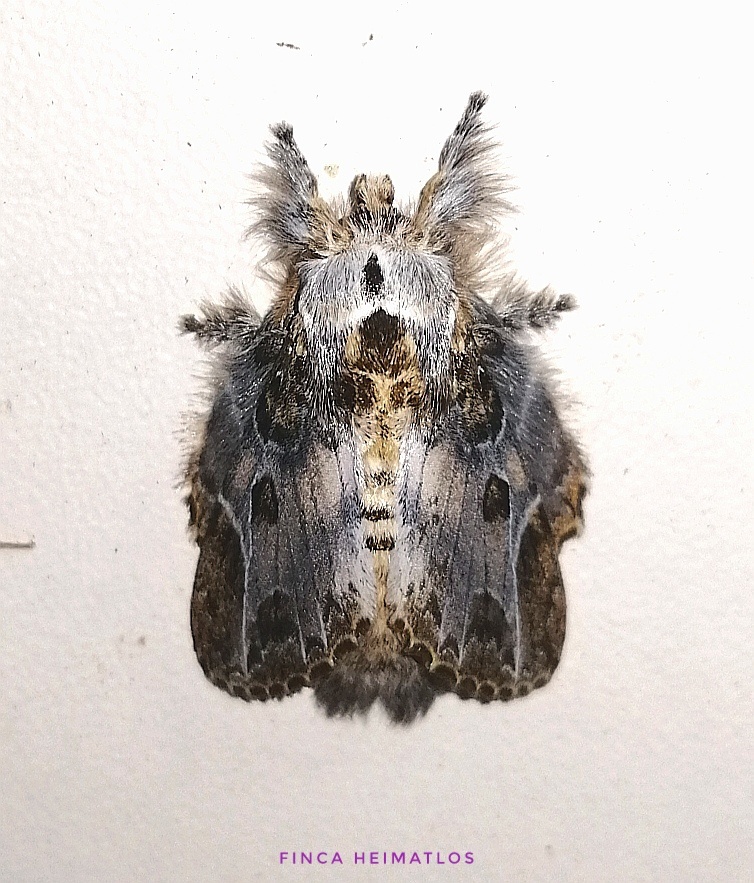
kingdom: Animalia
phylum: Arthropoda
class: Insecta
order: Lepidoptera
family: Lasiocampidae
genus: Euglyphis
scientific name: Euglyphis laronia
